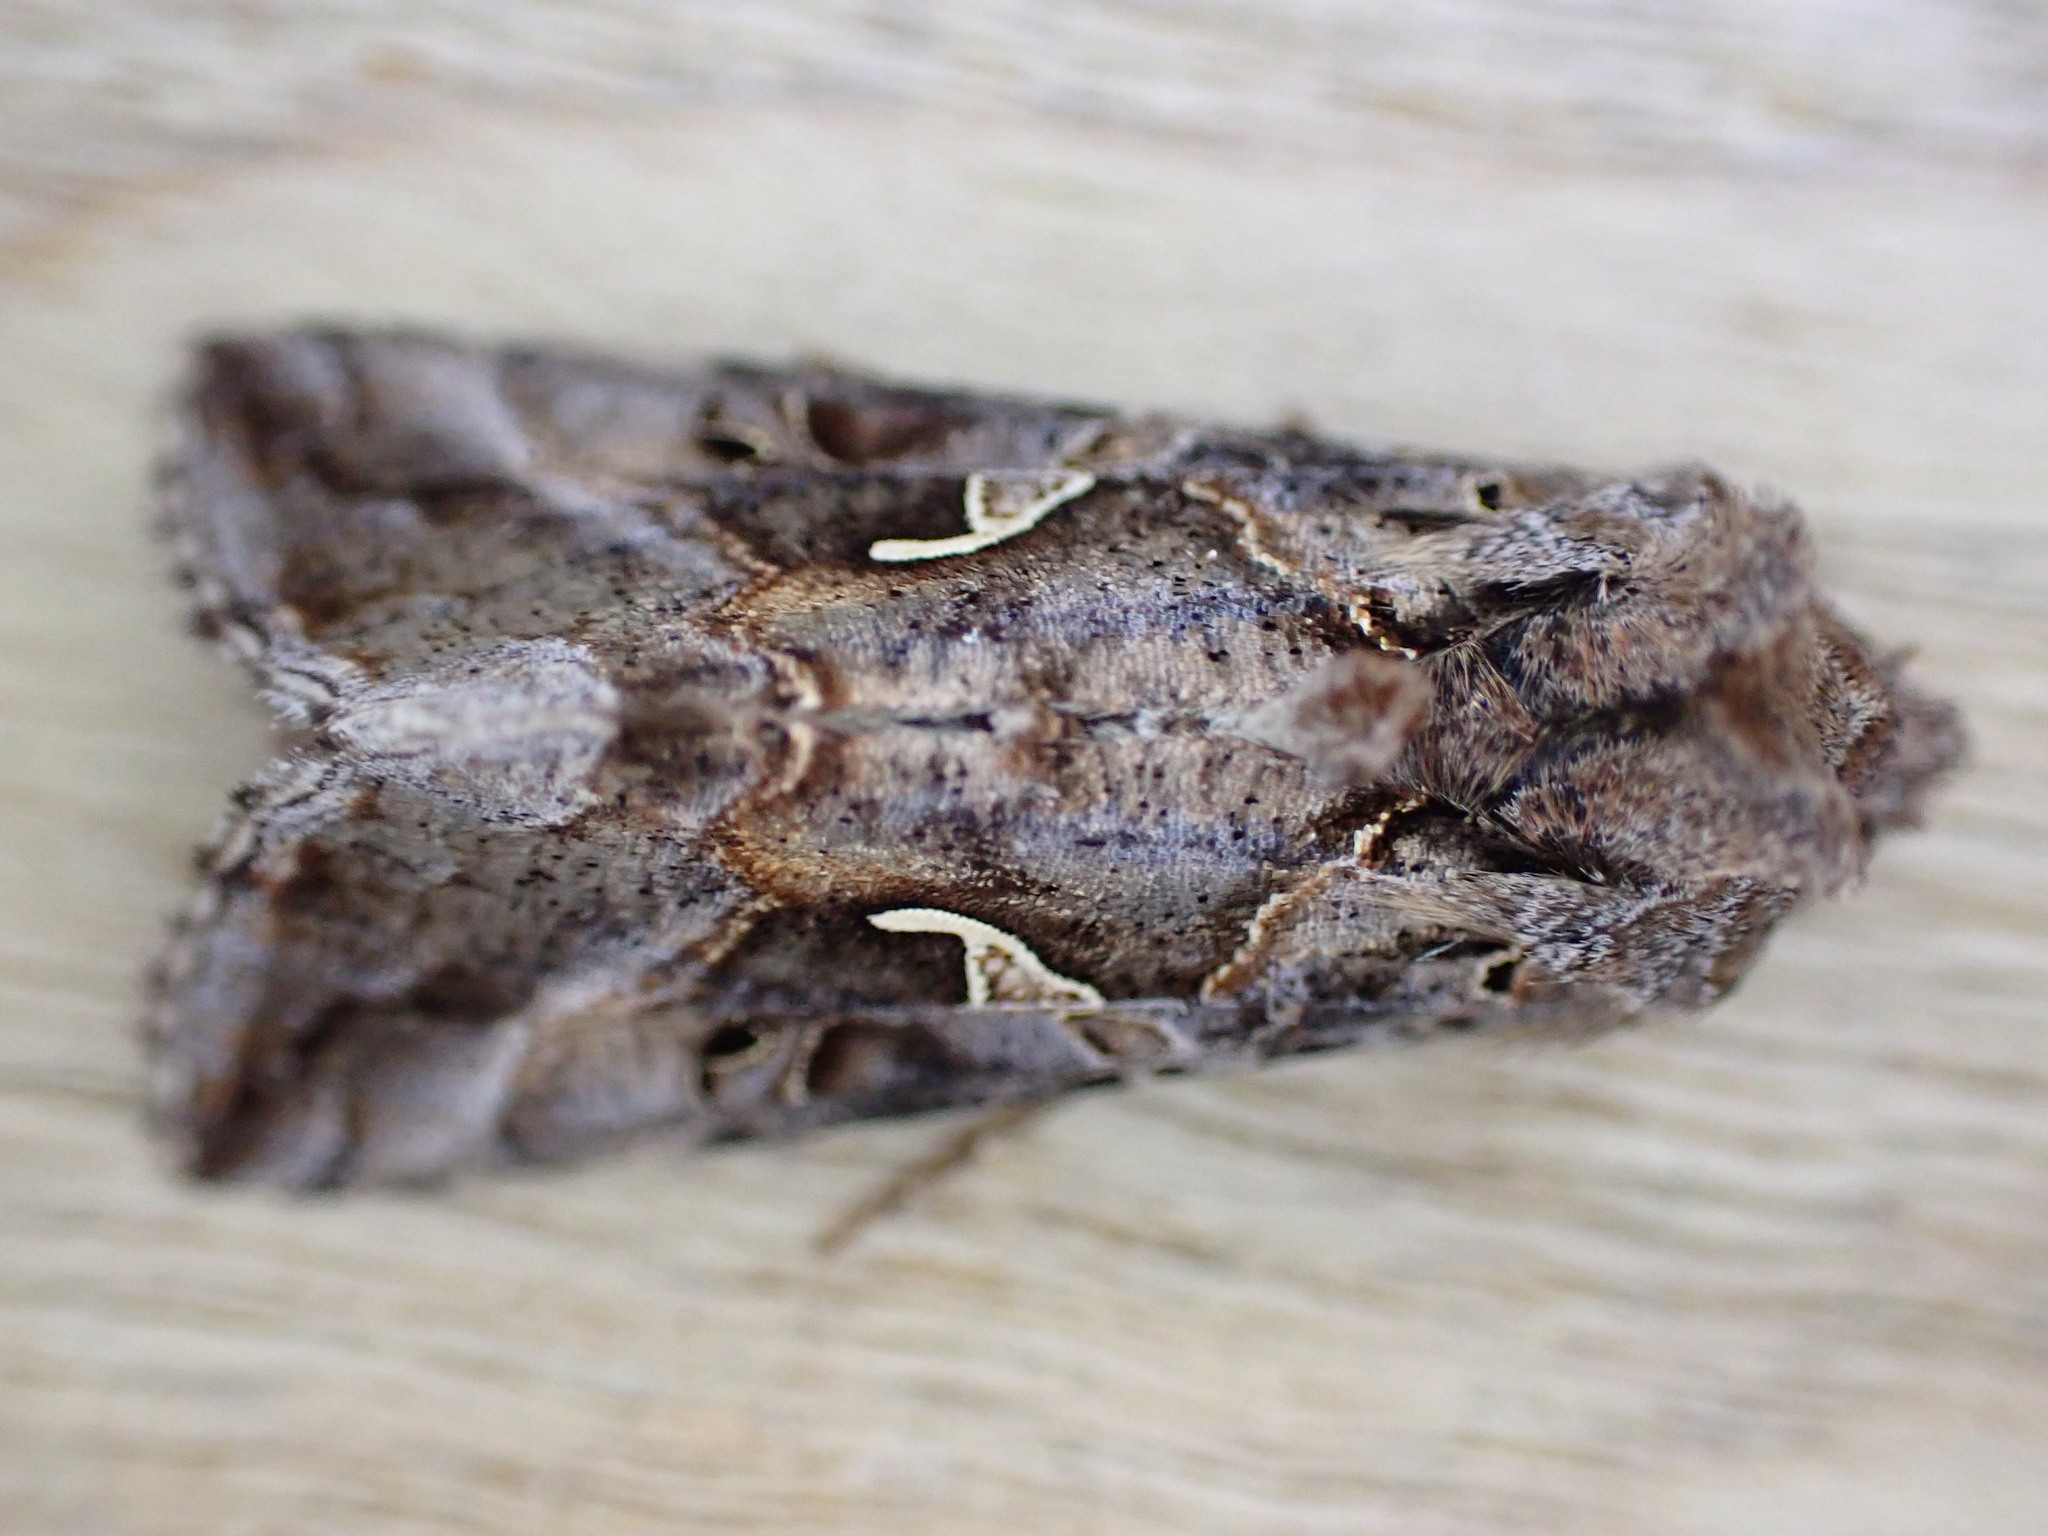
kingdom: Animalia
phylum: Arthropoda
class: Insecta
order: Lepidoptera
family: Noctuidae
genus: Autographa
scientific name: Autographa gamma
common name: Silver y
